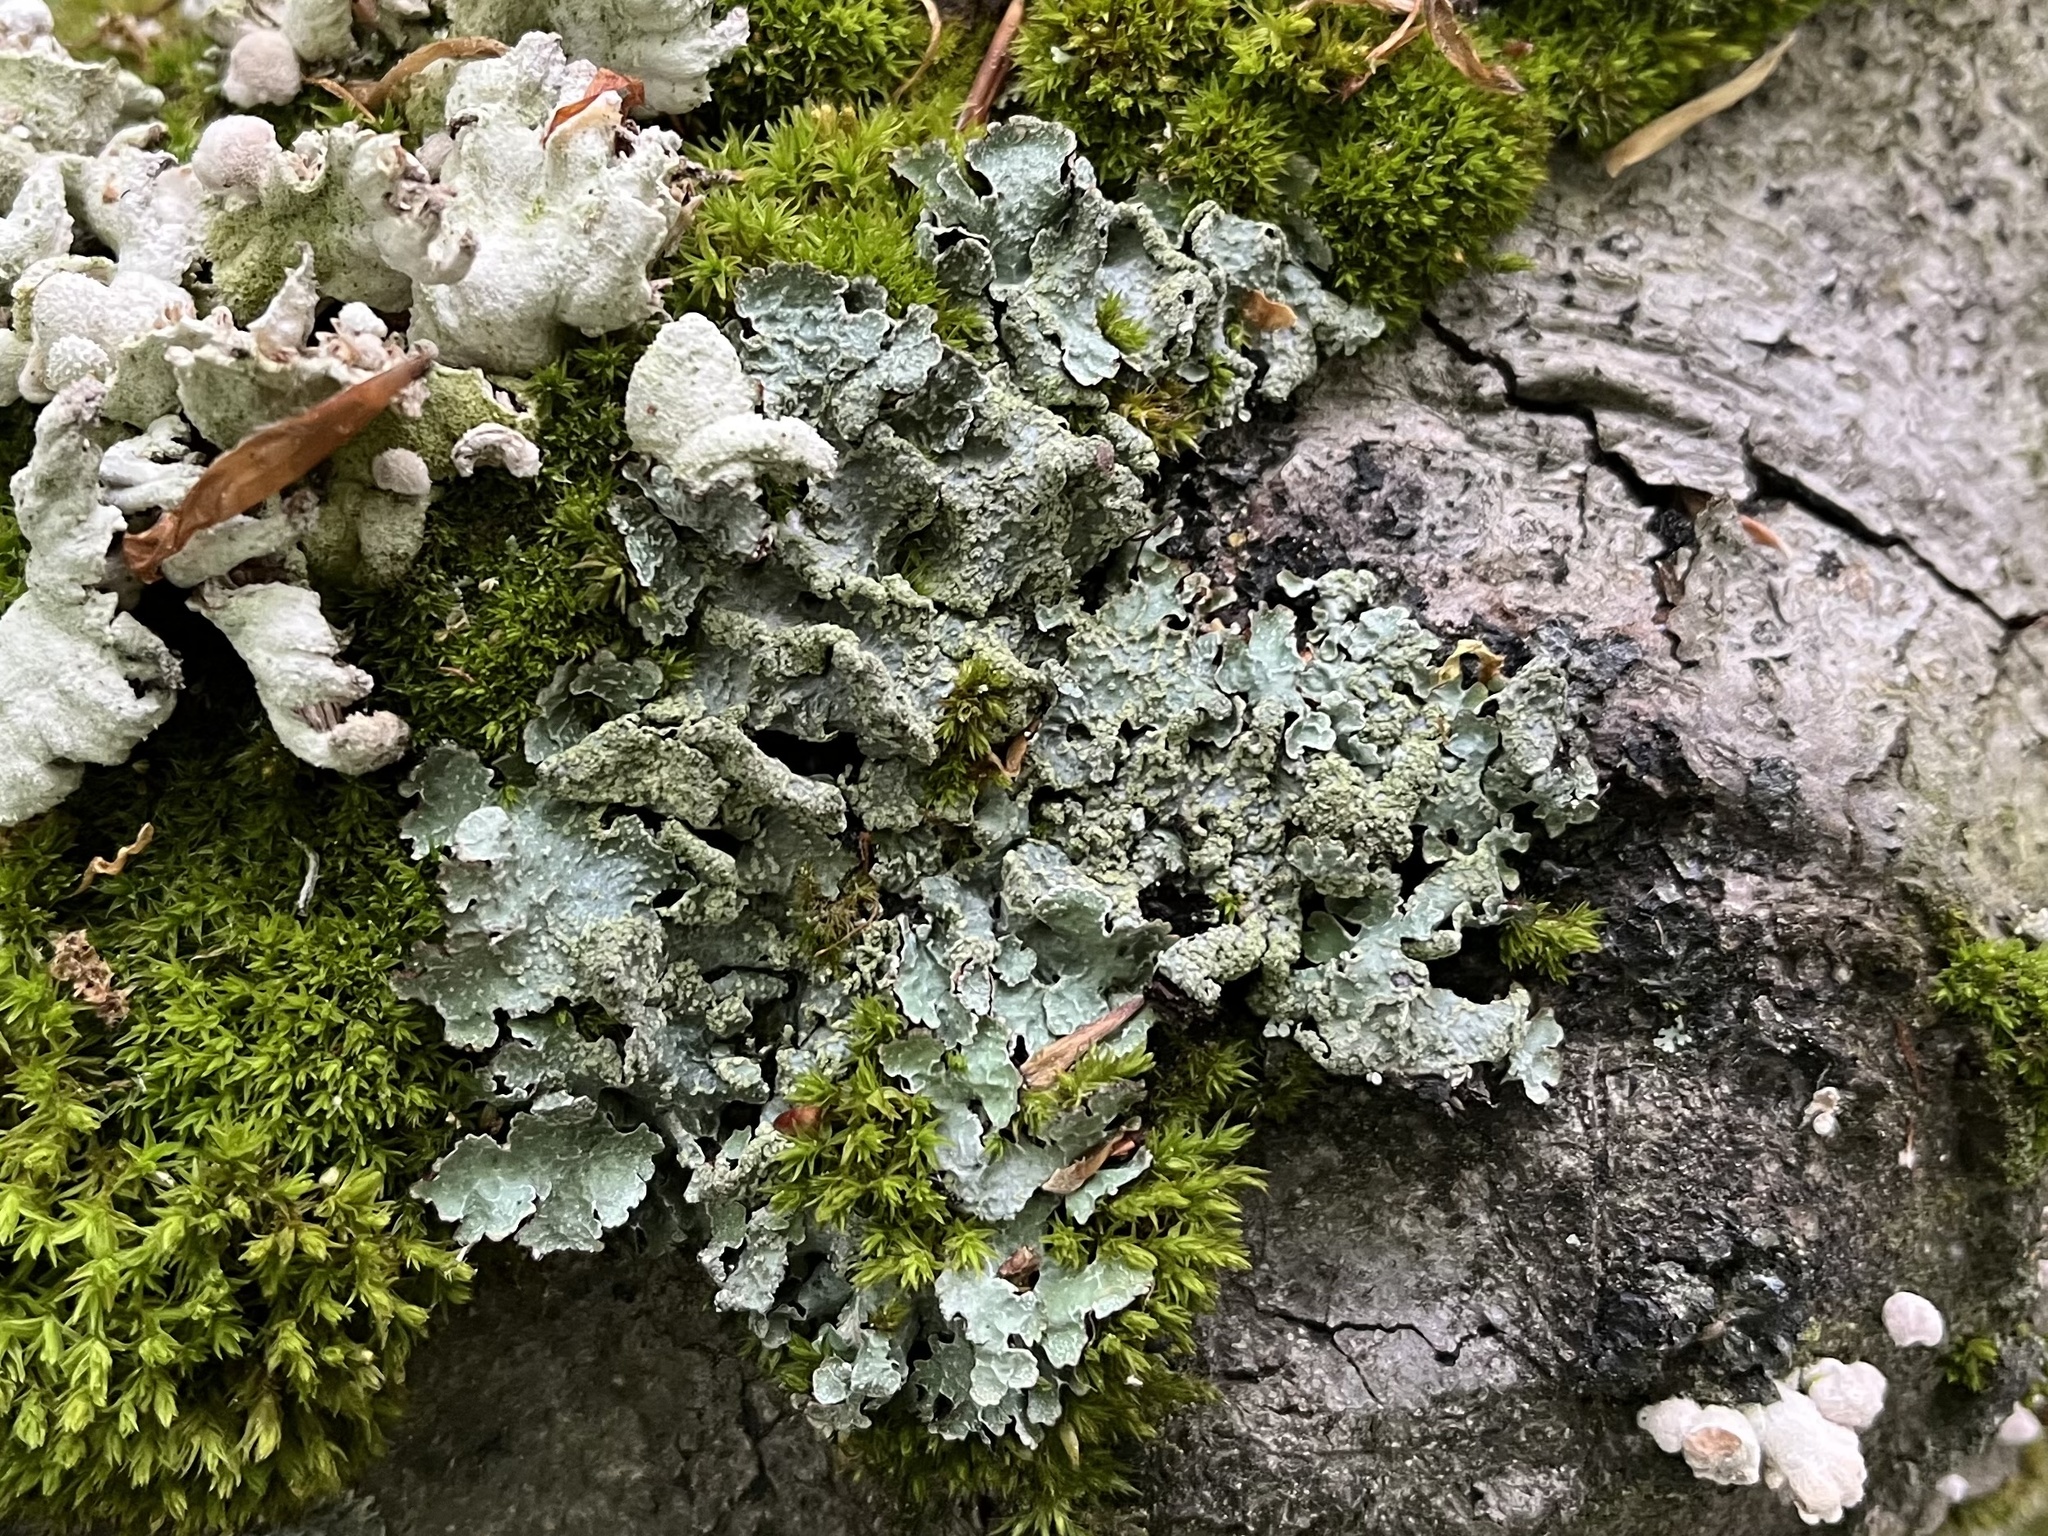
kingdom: Fungi
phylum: Ascomycota
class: Lecanoromycetes
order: Lecanorales
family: Parmeliaceae
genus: Parmelia
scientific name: Parmelia sulcata
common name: Netted shield lichen
